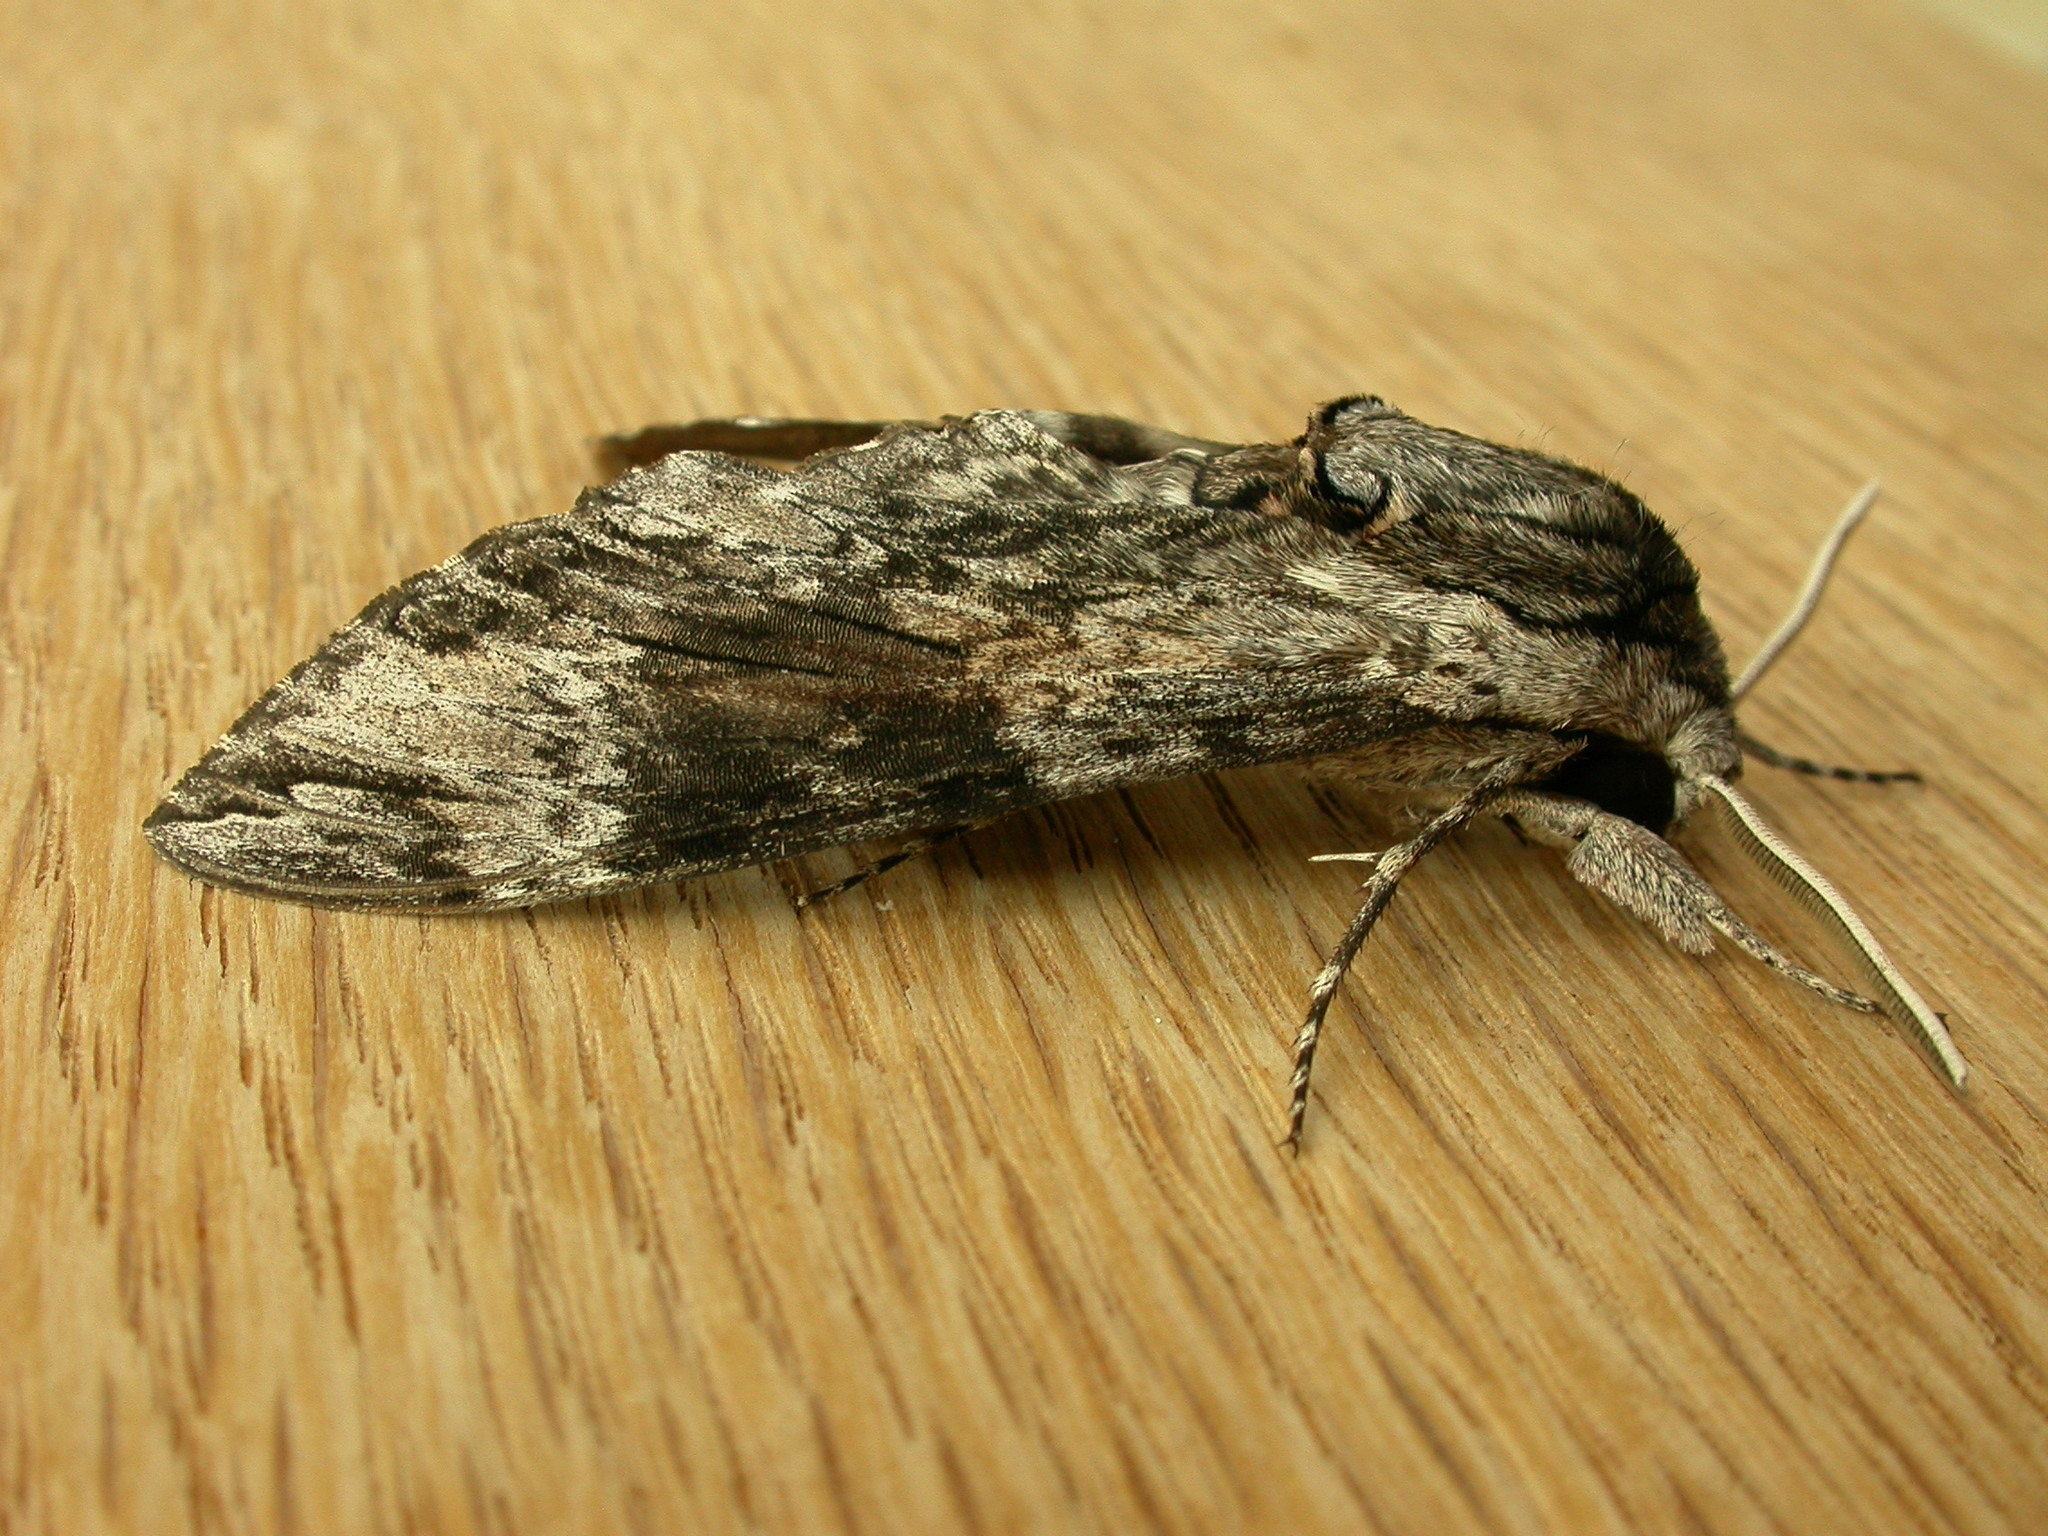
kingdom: Animalia
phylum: Arthropoda
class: Insecta
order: Lepidoptera
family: Sphingidae
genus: Agrius
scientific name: Agrius convolvuli
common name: Convolvulus hawkmoth
